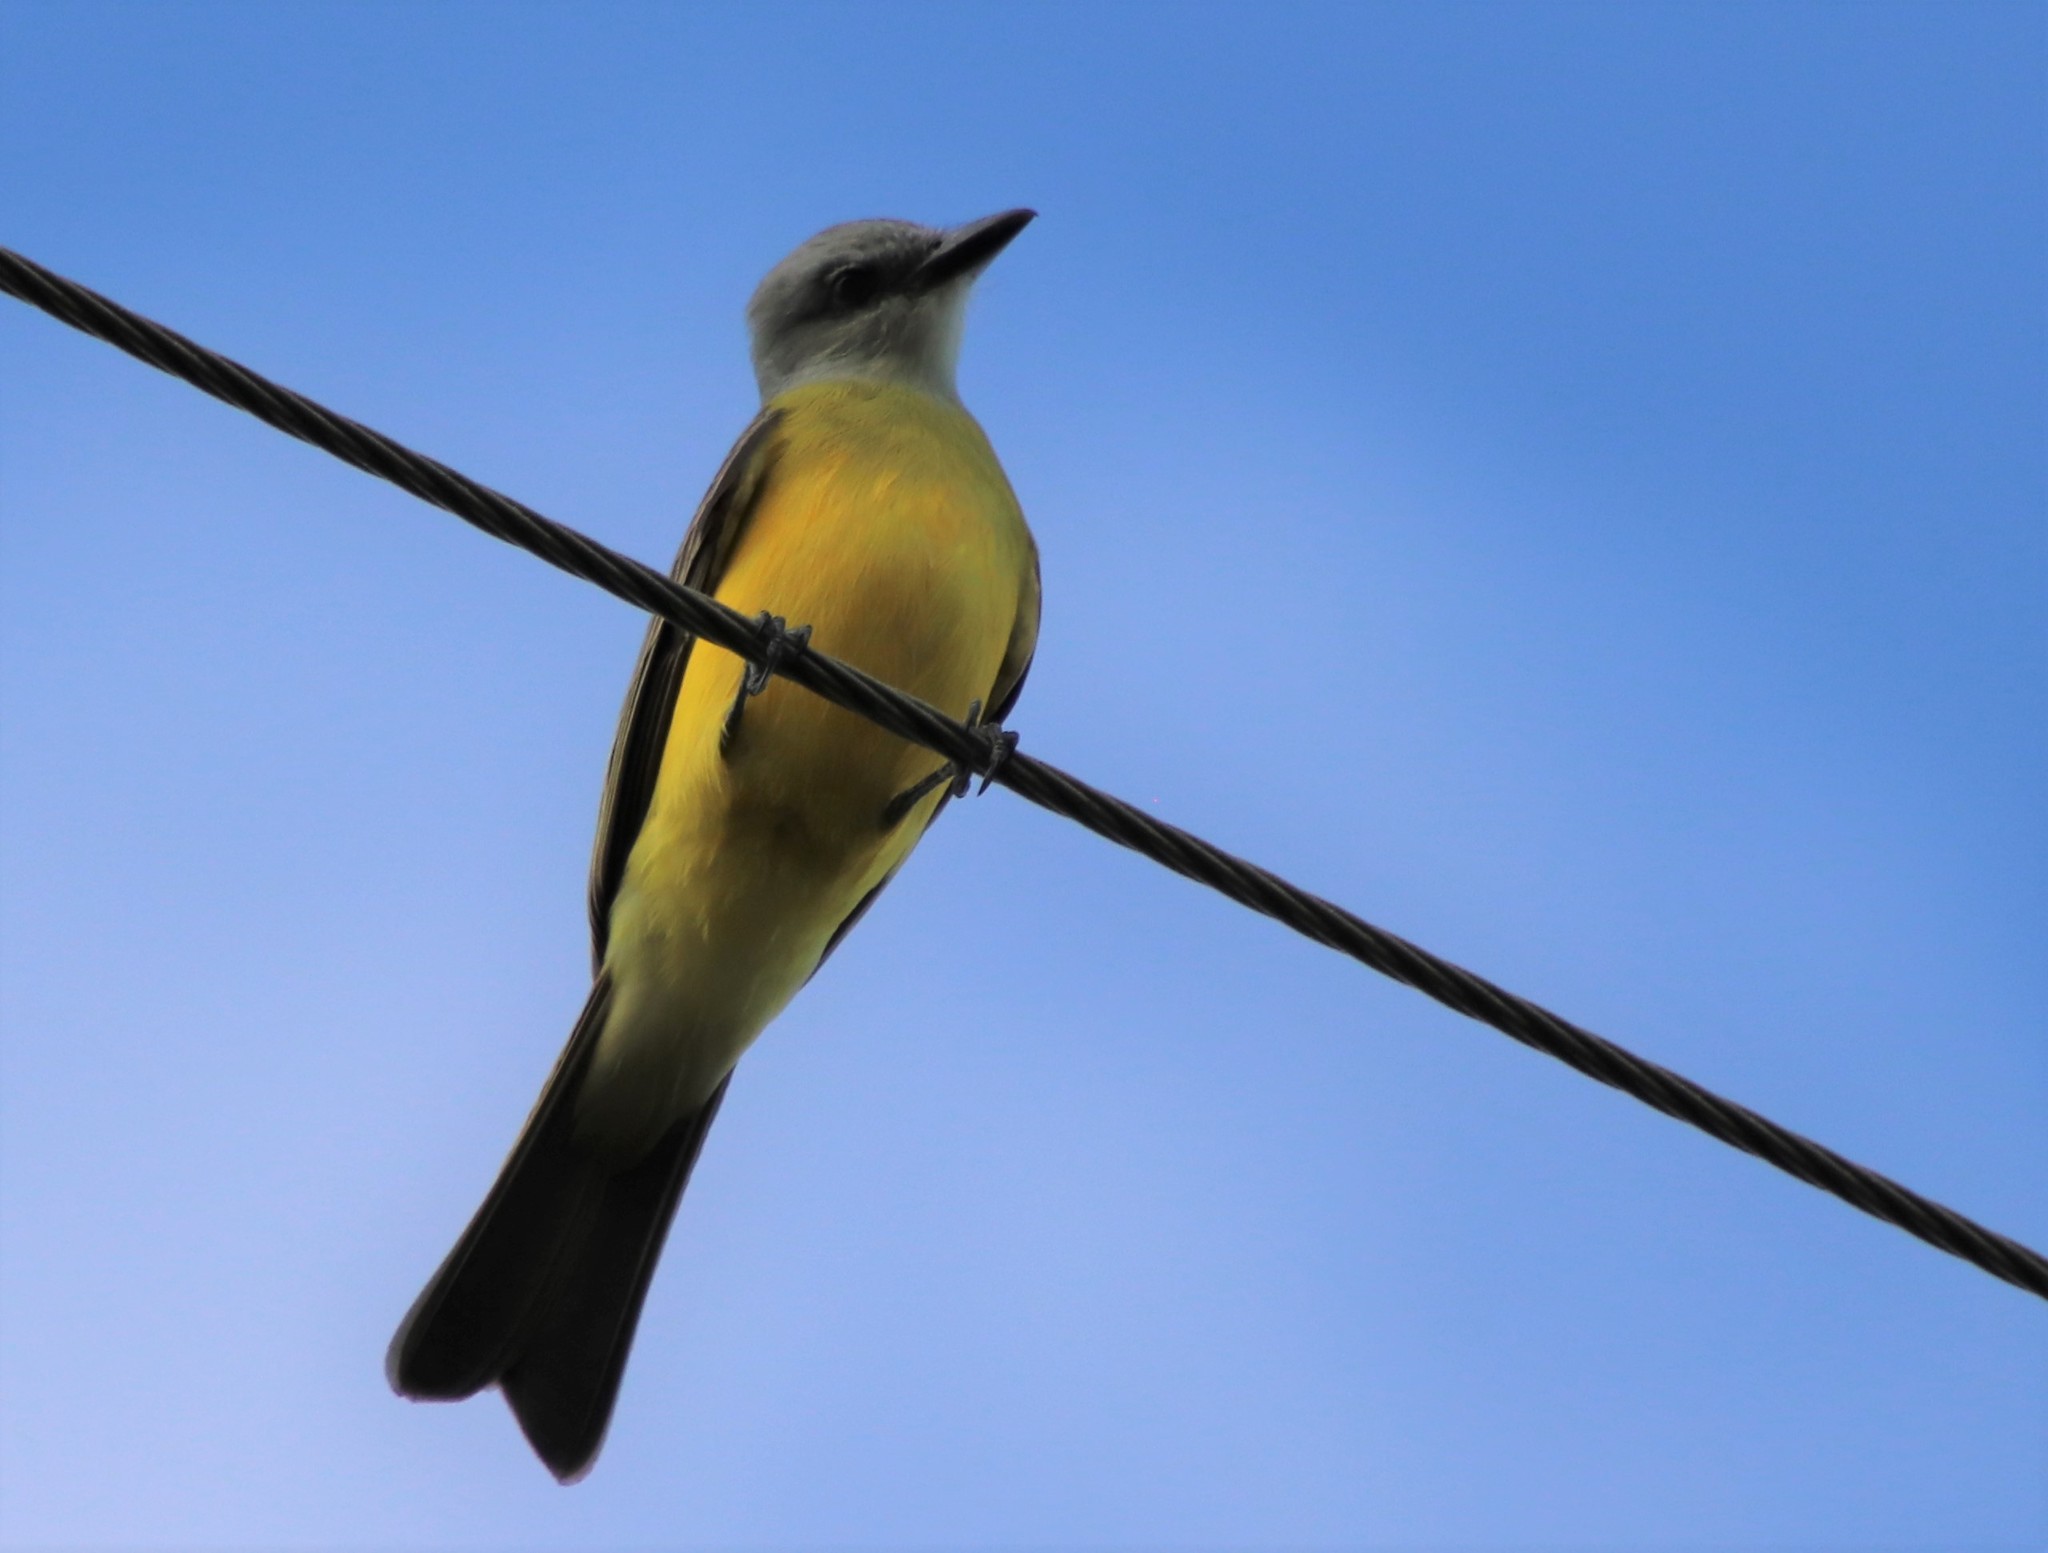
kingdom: Animalia
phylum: Chordata
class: Aves
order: Passeriformes
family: Tyrannidae
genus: Tyrannus
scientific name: Tyrannus couchii
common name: Couch's kingbird
